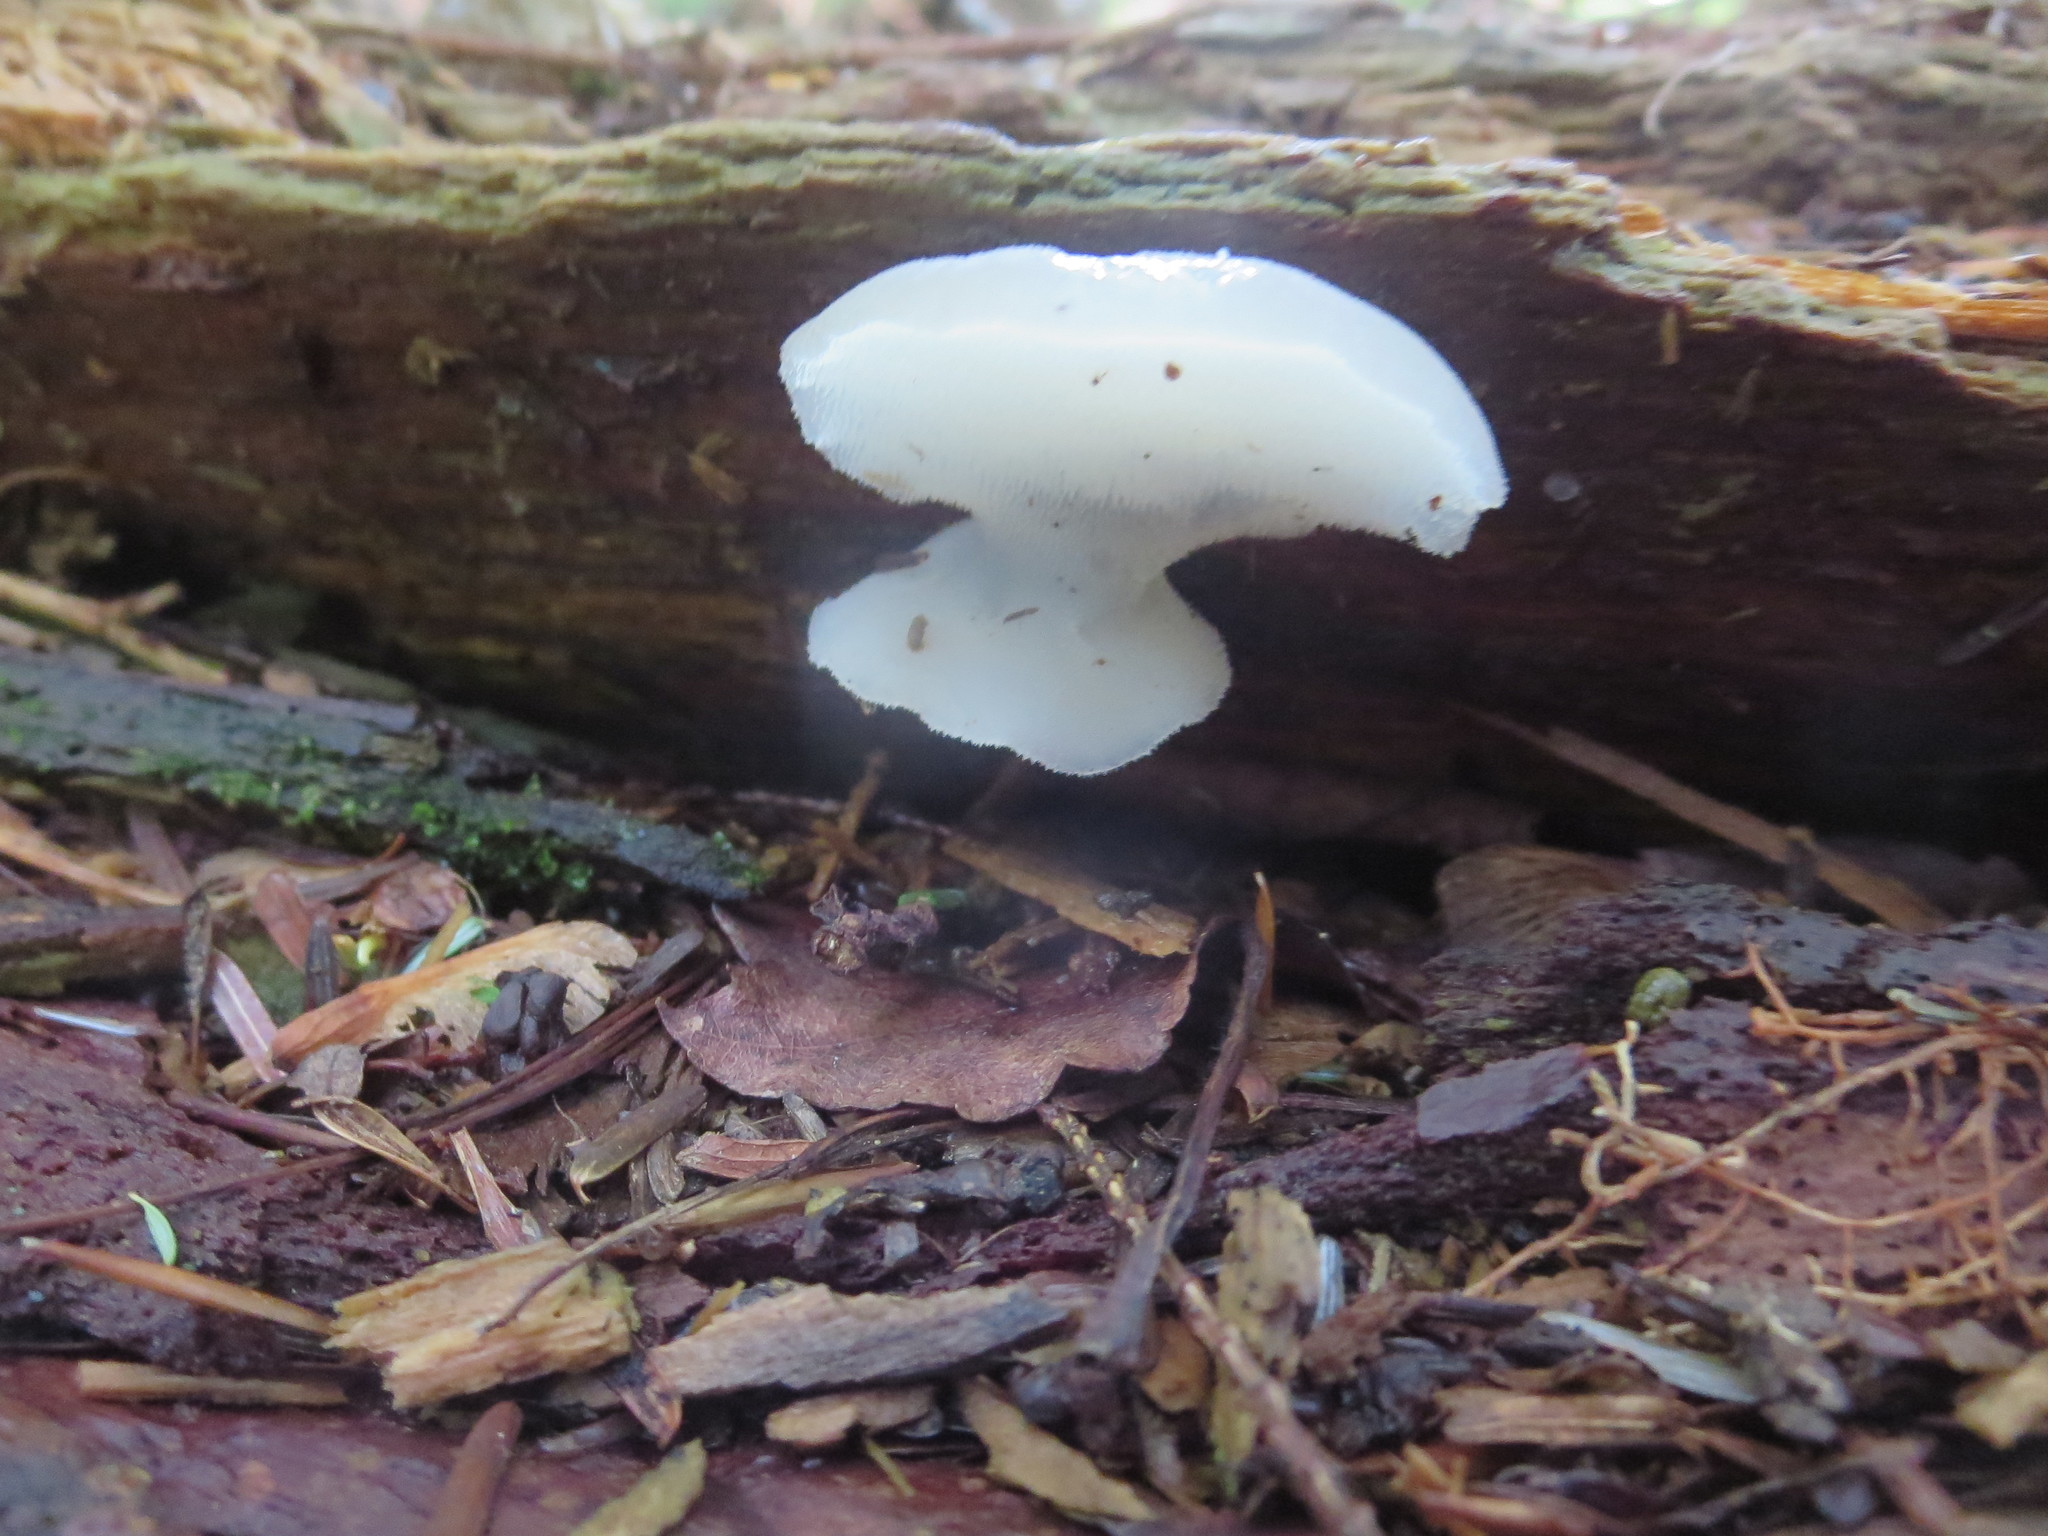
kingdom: Fungi
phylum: Basidiomycota
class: Agaricomycetes
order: Auriculariales
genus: Pseudohydnum
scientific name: Pseudohydnum gelatinosum
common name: Jelly tongue
